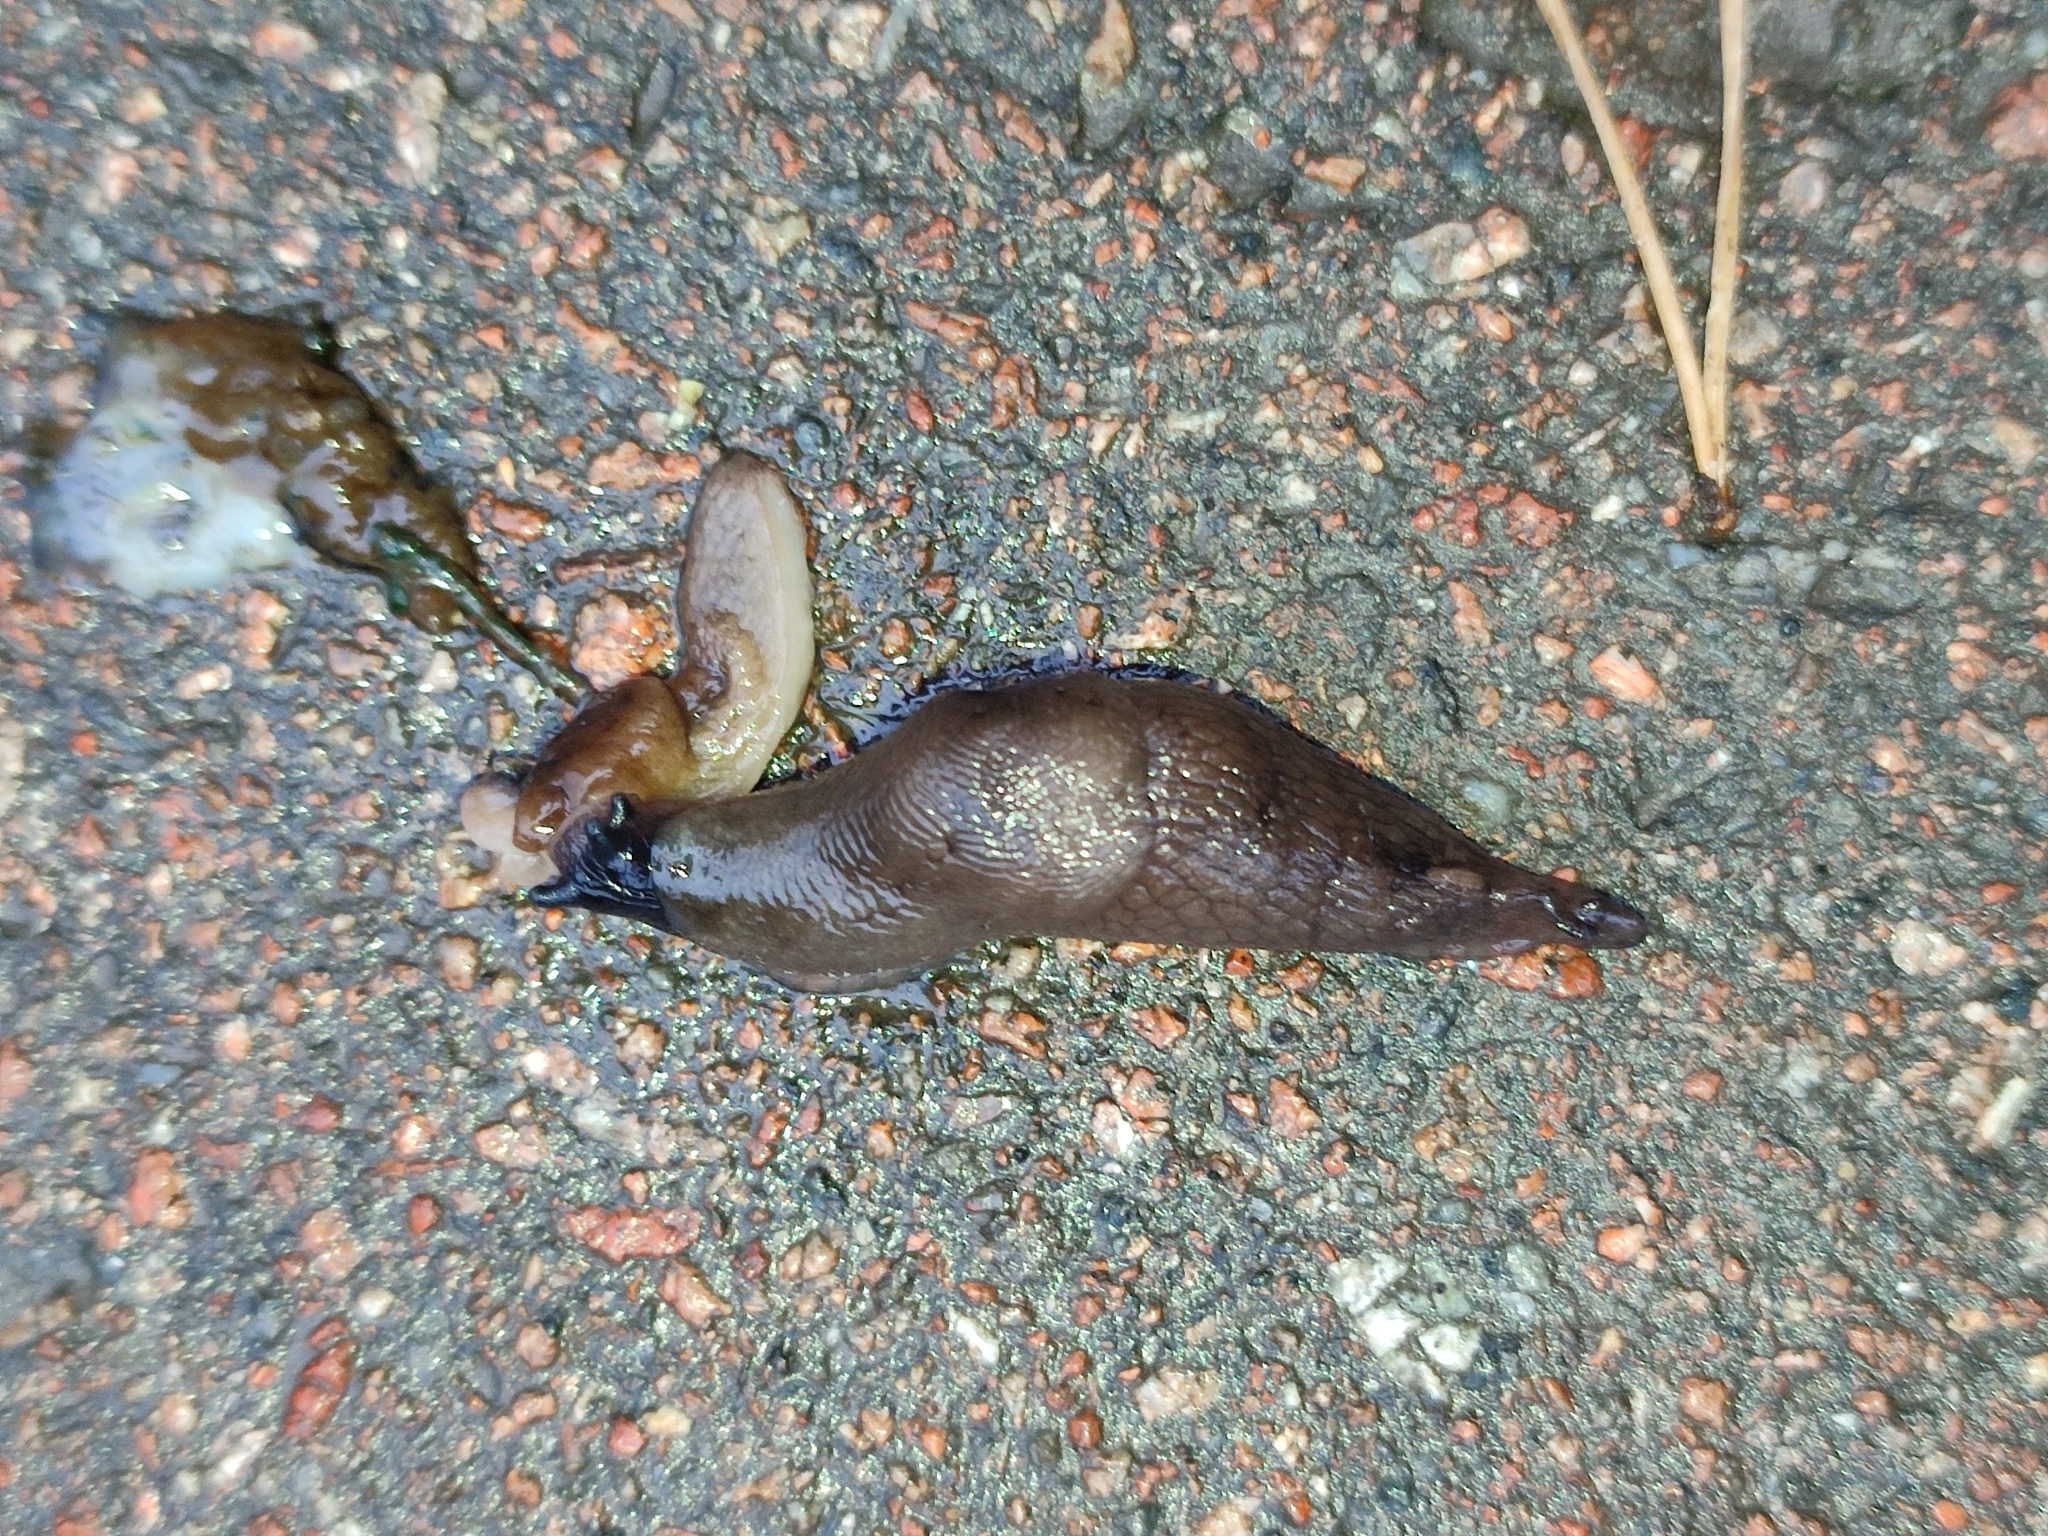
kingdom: Animalia
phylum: Mollusca
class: Gastropoda
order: Stylommatophora
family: Agriolimacidae
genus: Deroceras
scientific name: Deroceras caucasicum
